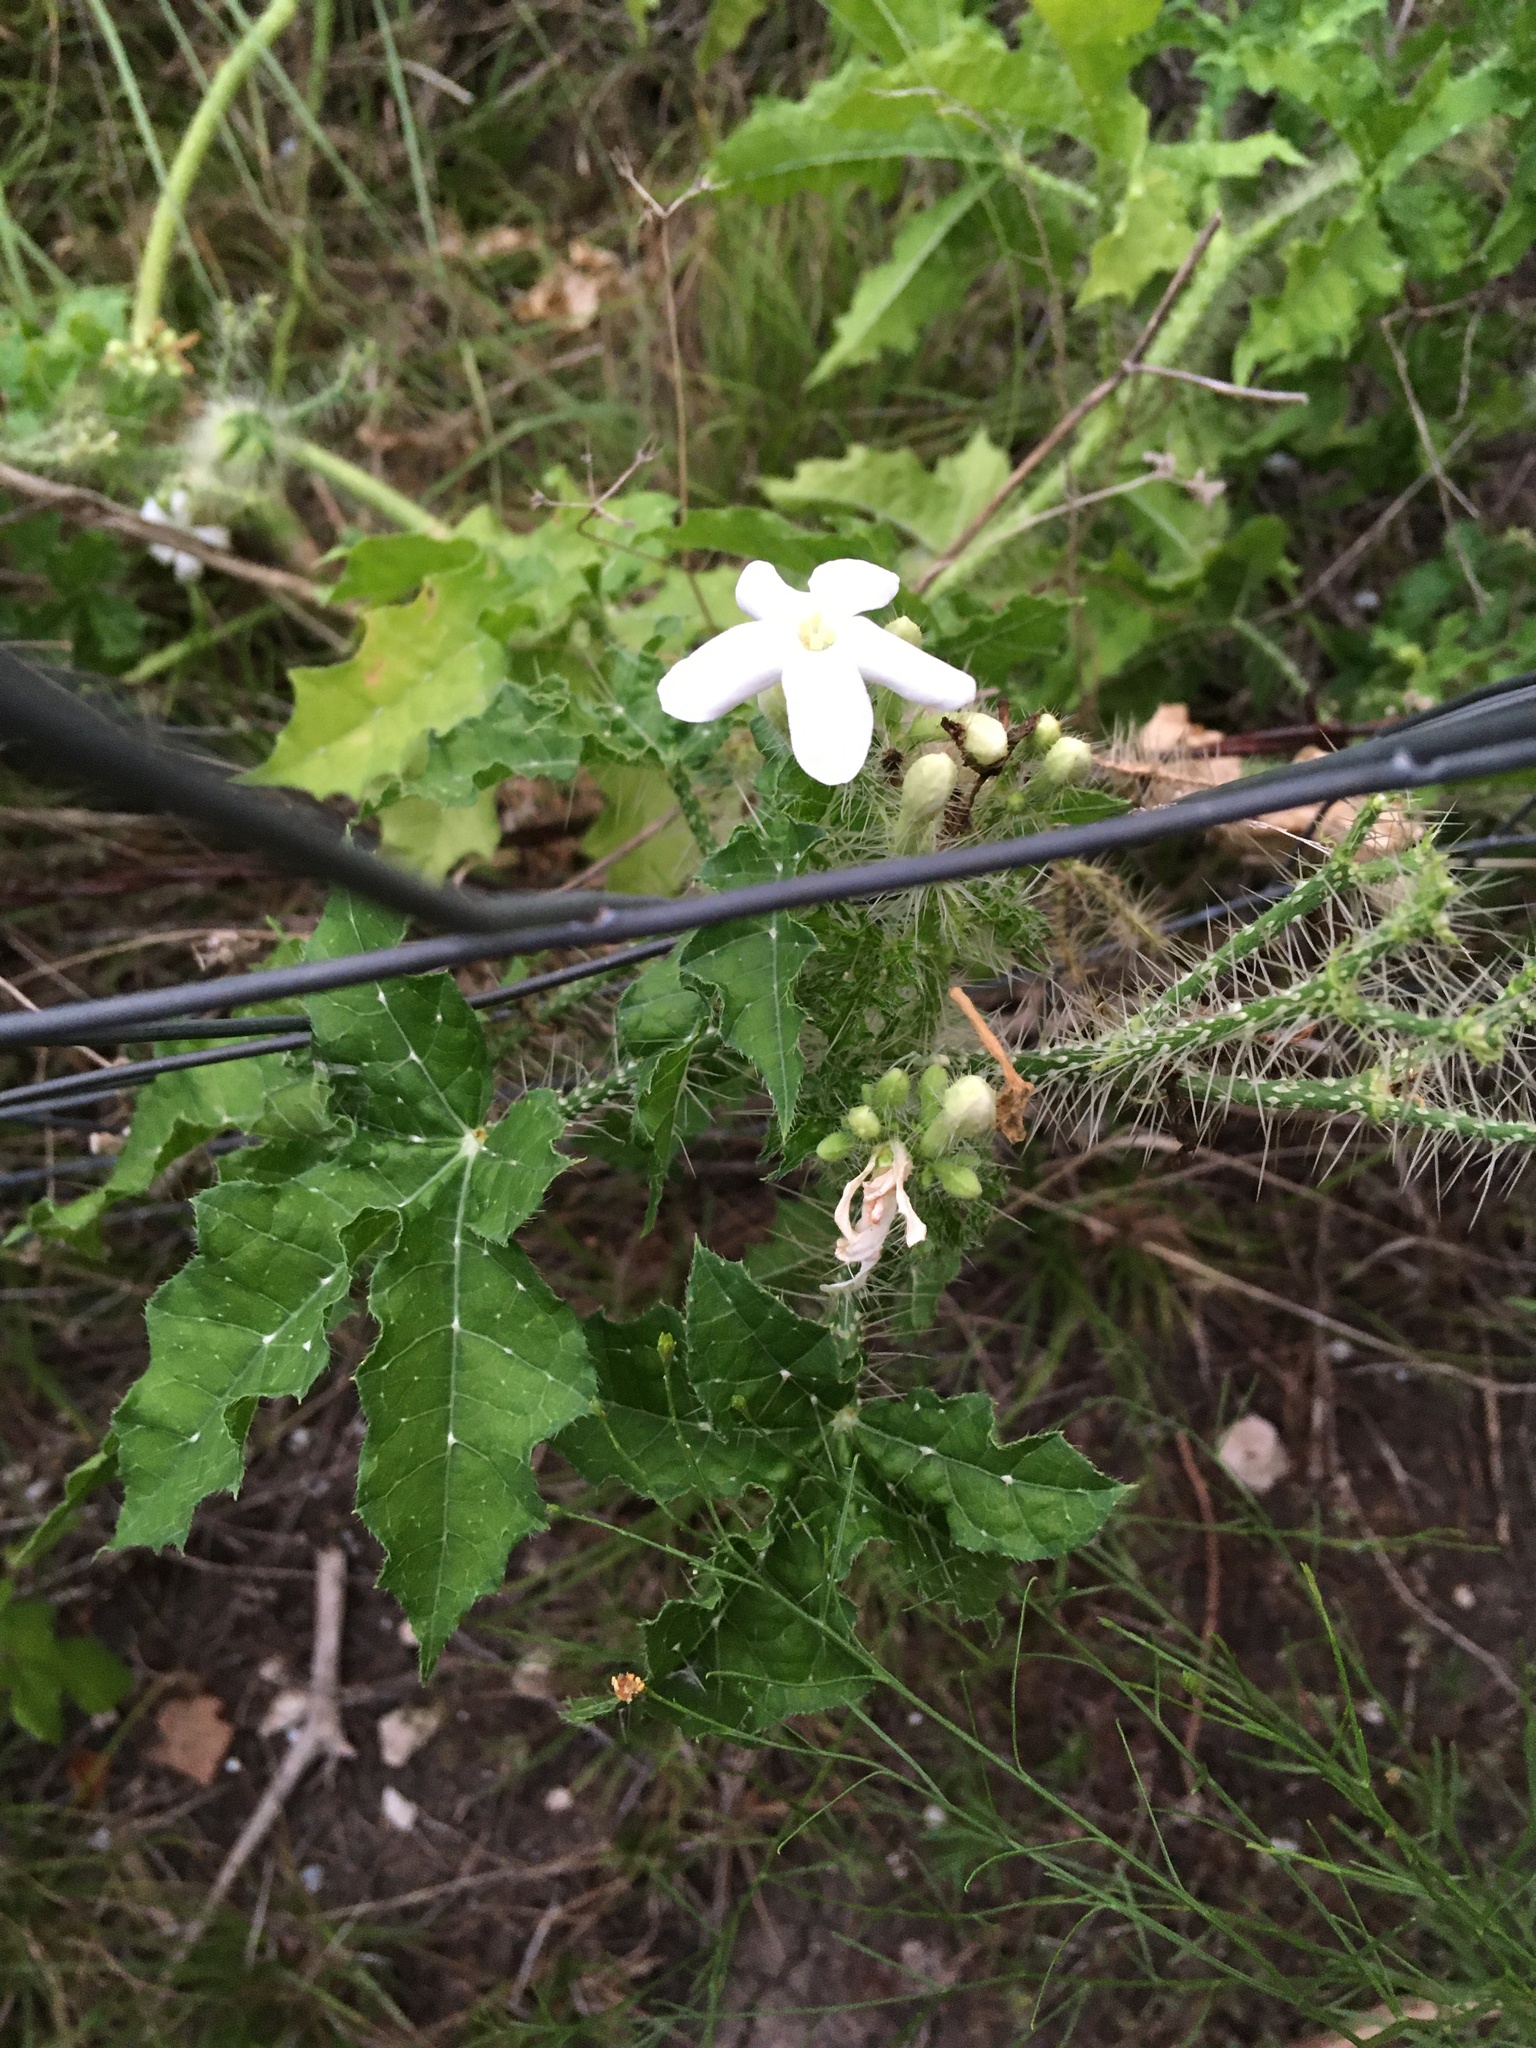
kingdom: Plantae
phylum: Tracheophyta
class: Magnoliopsida
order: Malpighiales
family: Euphorbiaceae
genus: Cnidoscolus
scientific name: Cnidoscolus texanus
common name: Texas bull-nettle
